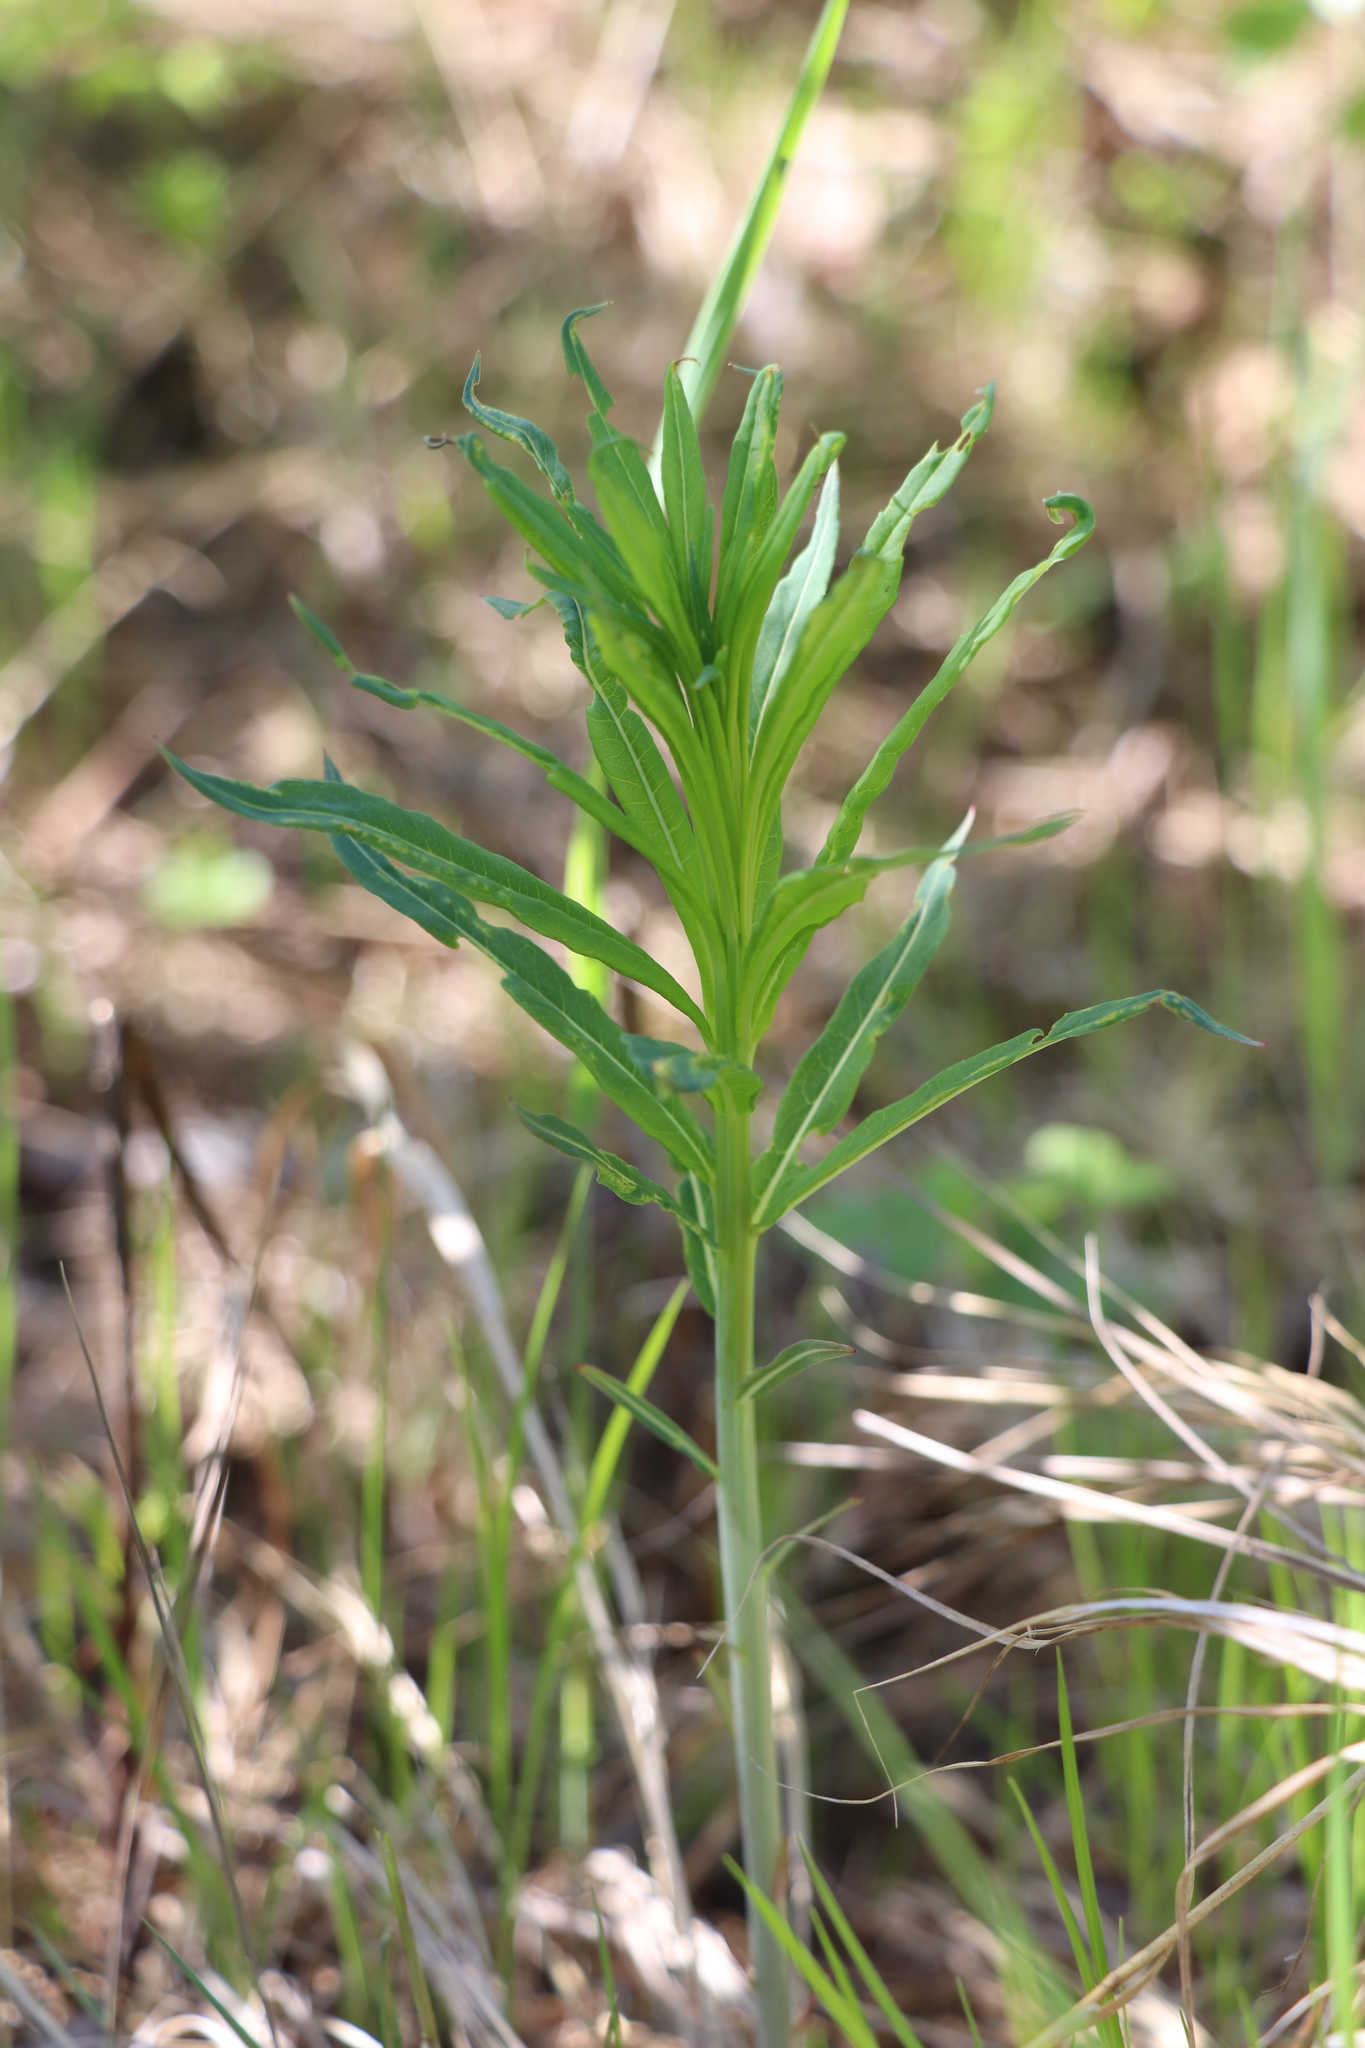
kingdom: Plantae
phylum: Tracheophyta
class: Magnoliopsida
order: Myrtales
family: Onagraceae
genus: Chamaenerion
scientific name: Chamaenerion angustifolium
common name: Fireweed
